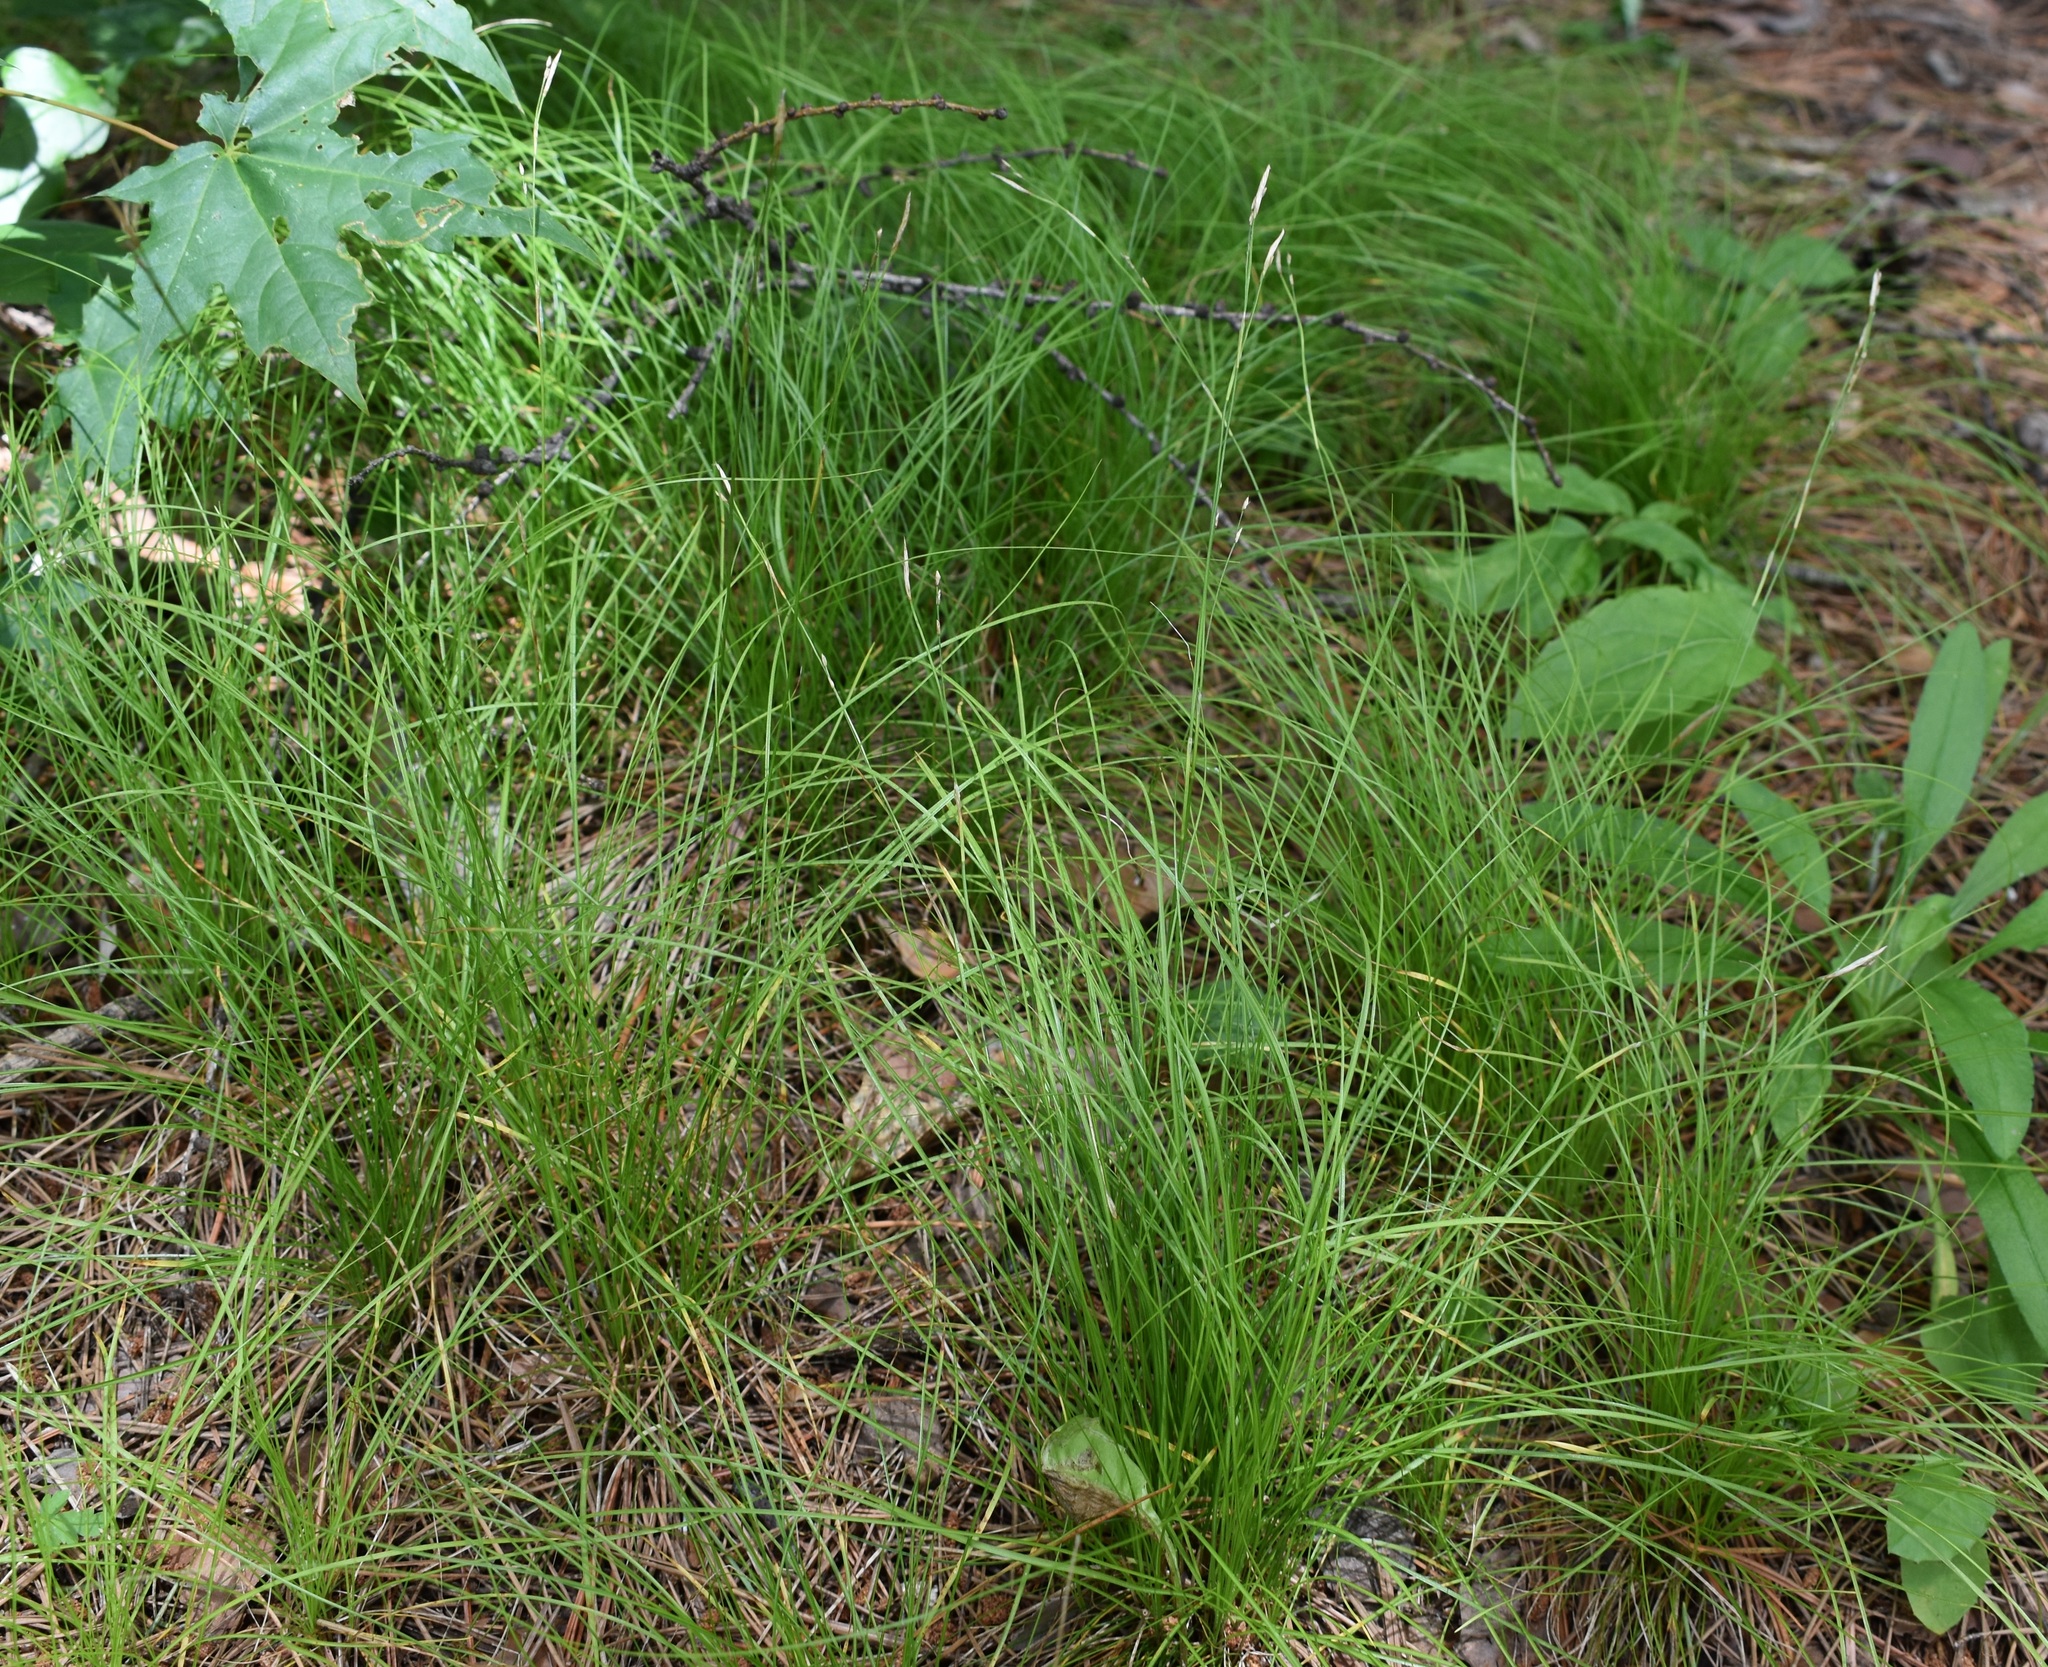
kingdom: Plantae
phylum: Tracheophyta
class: Liliopsida
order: Poales
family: Cyperaceae
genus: Carex
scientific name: Carex ussuriensis
